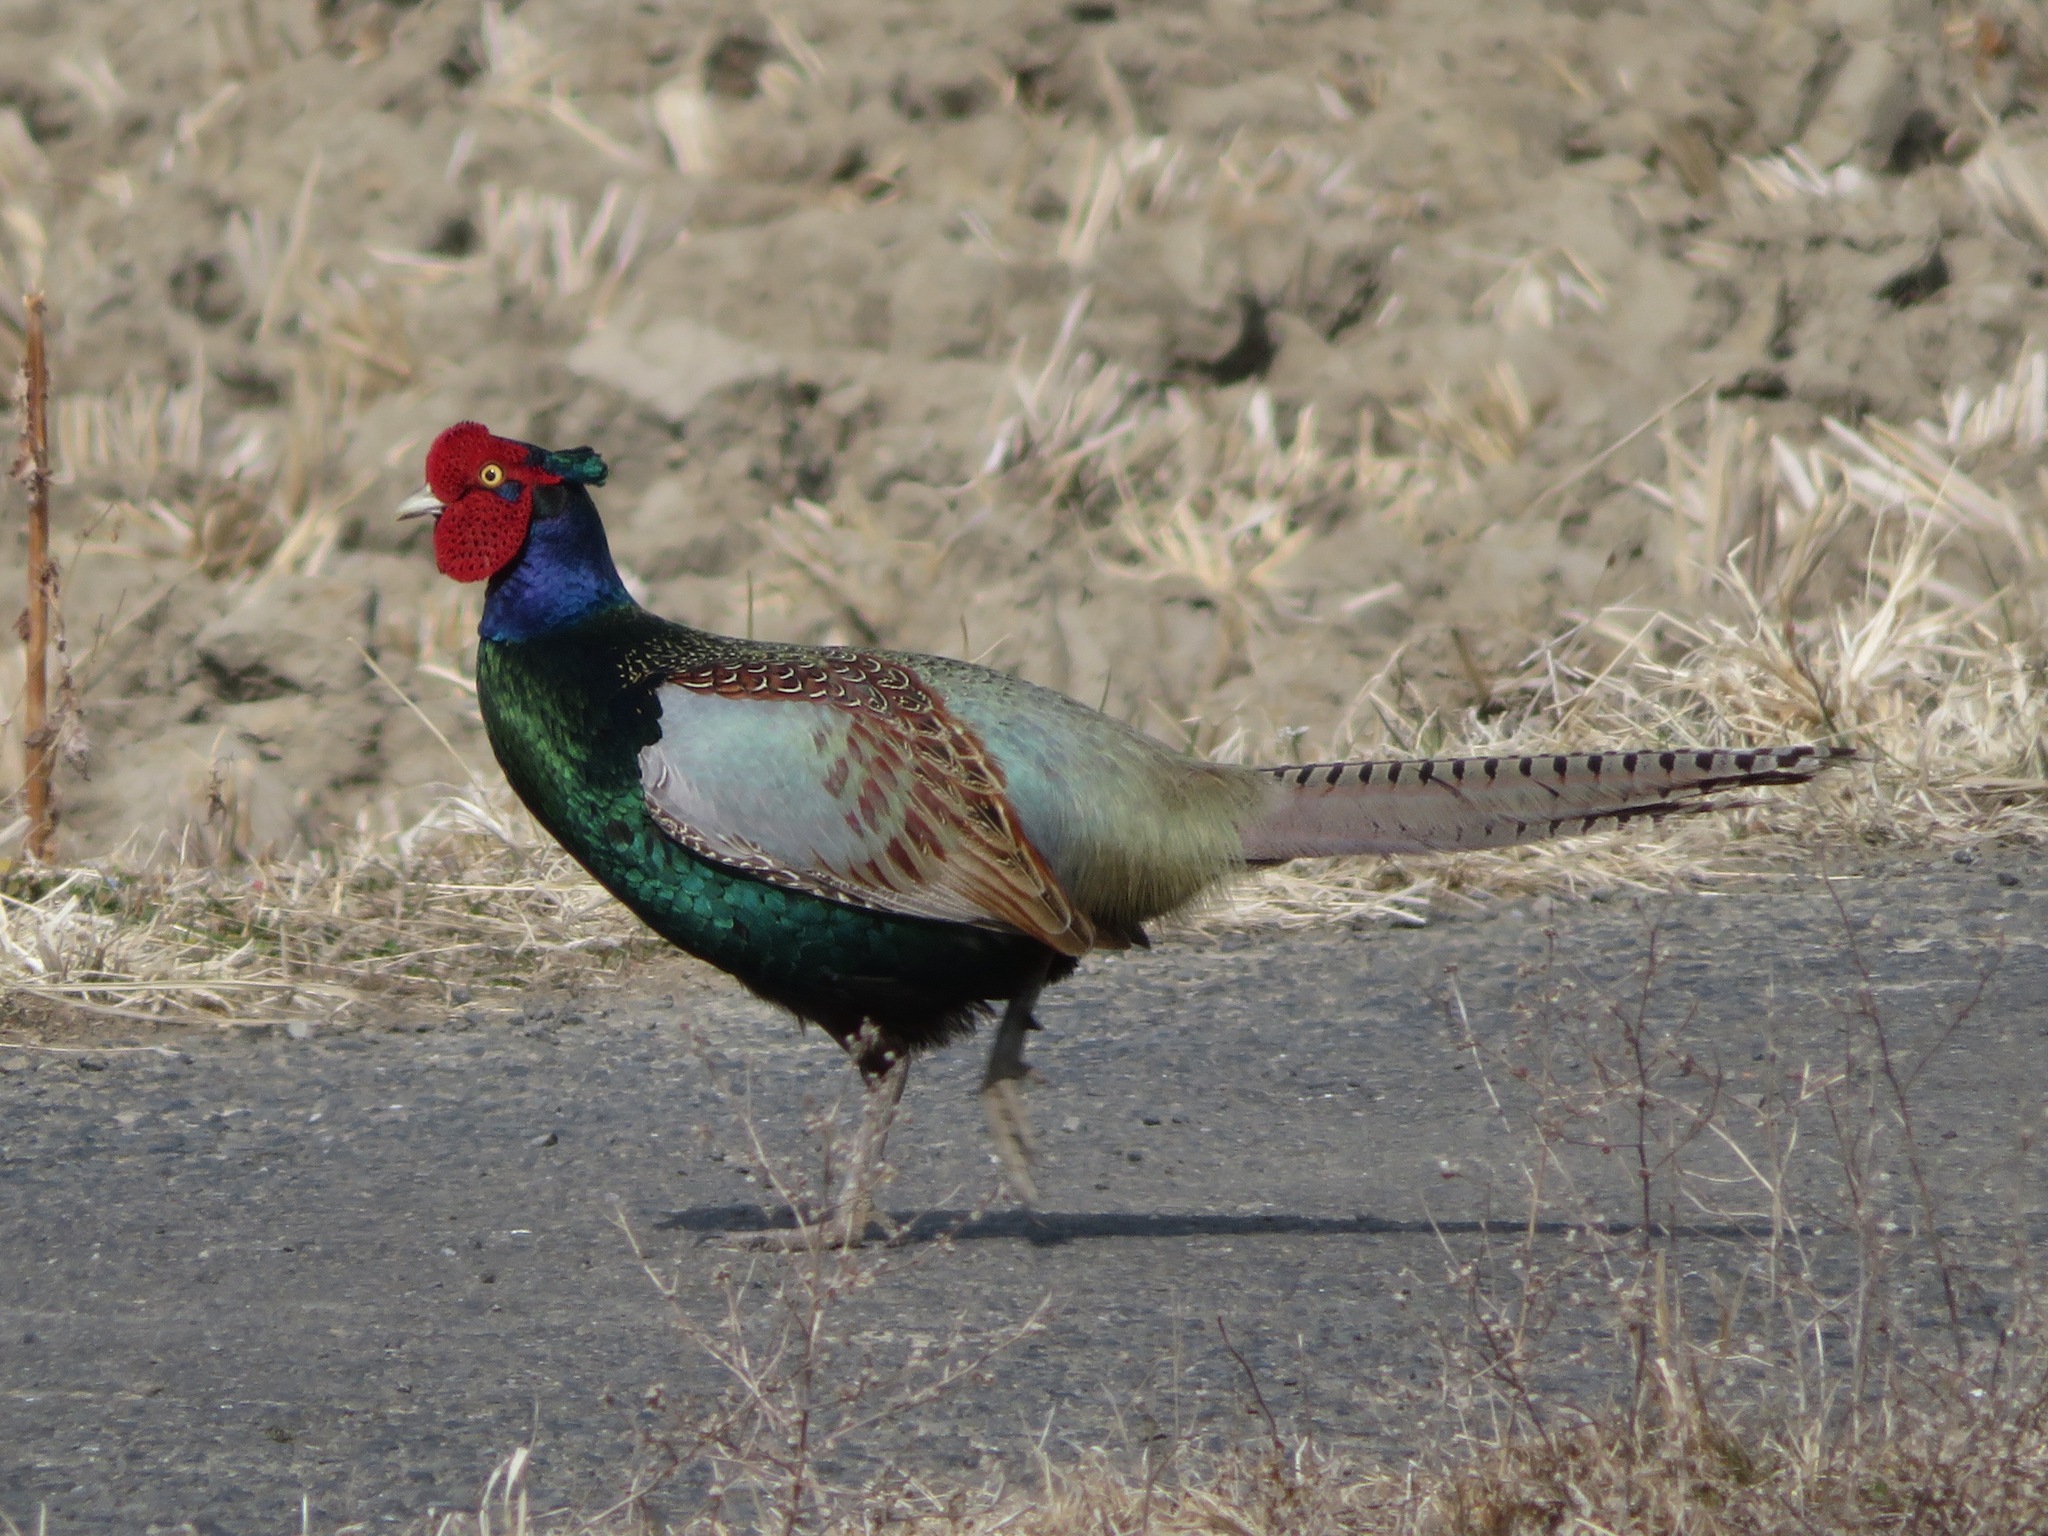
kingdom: Animalia
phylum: Chordata
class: Aves
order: Galliformes
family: Phasianidae
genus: Phasianus
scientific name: Phasianus versicolor
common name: Green pheasant
